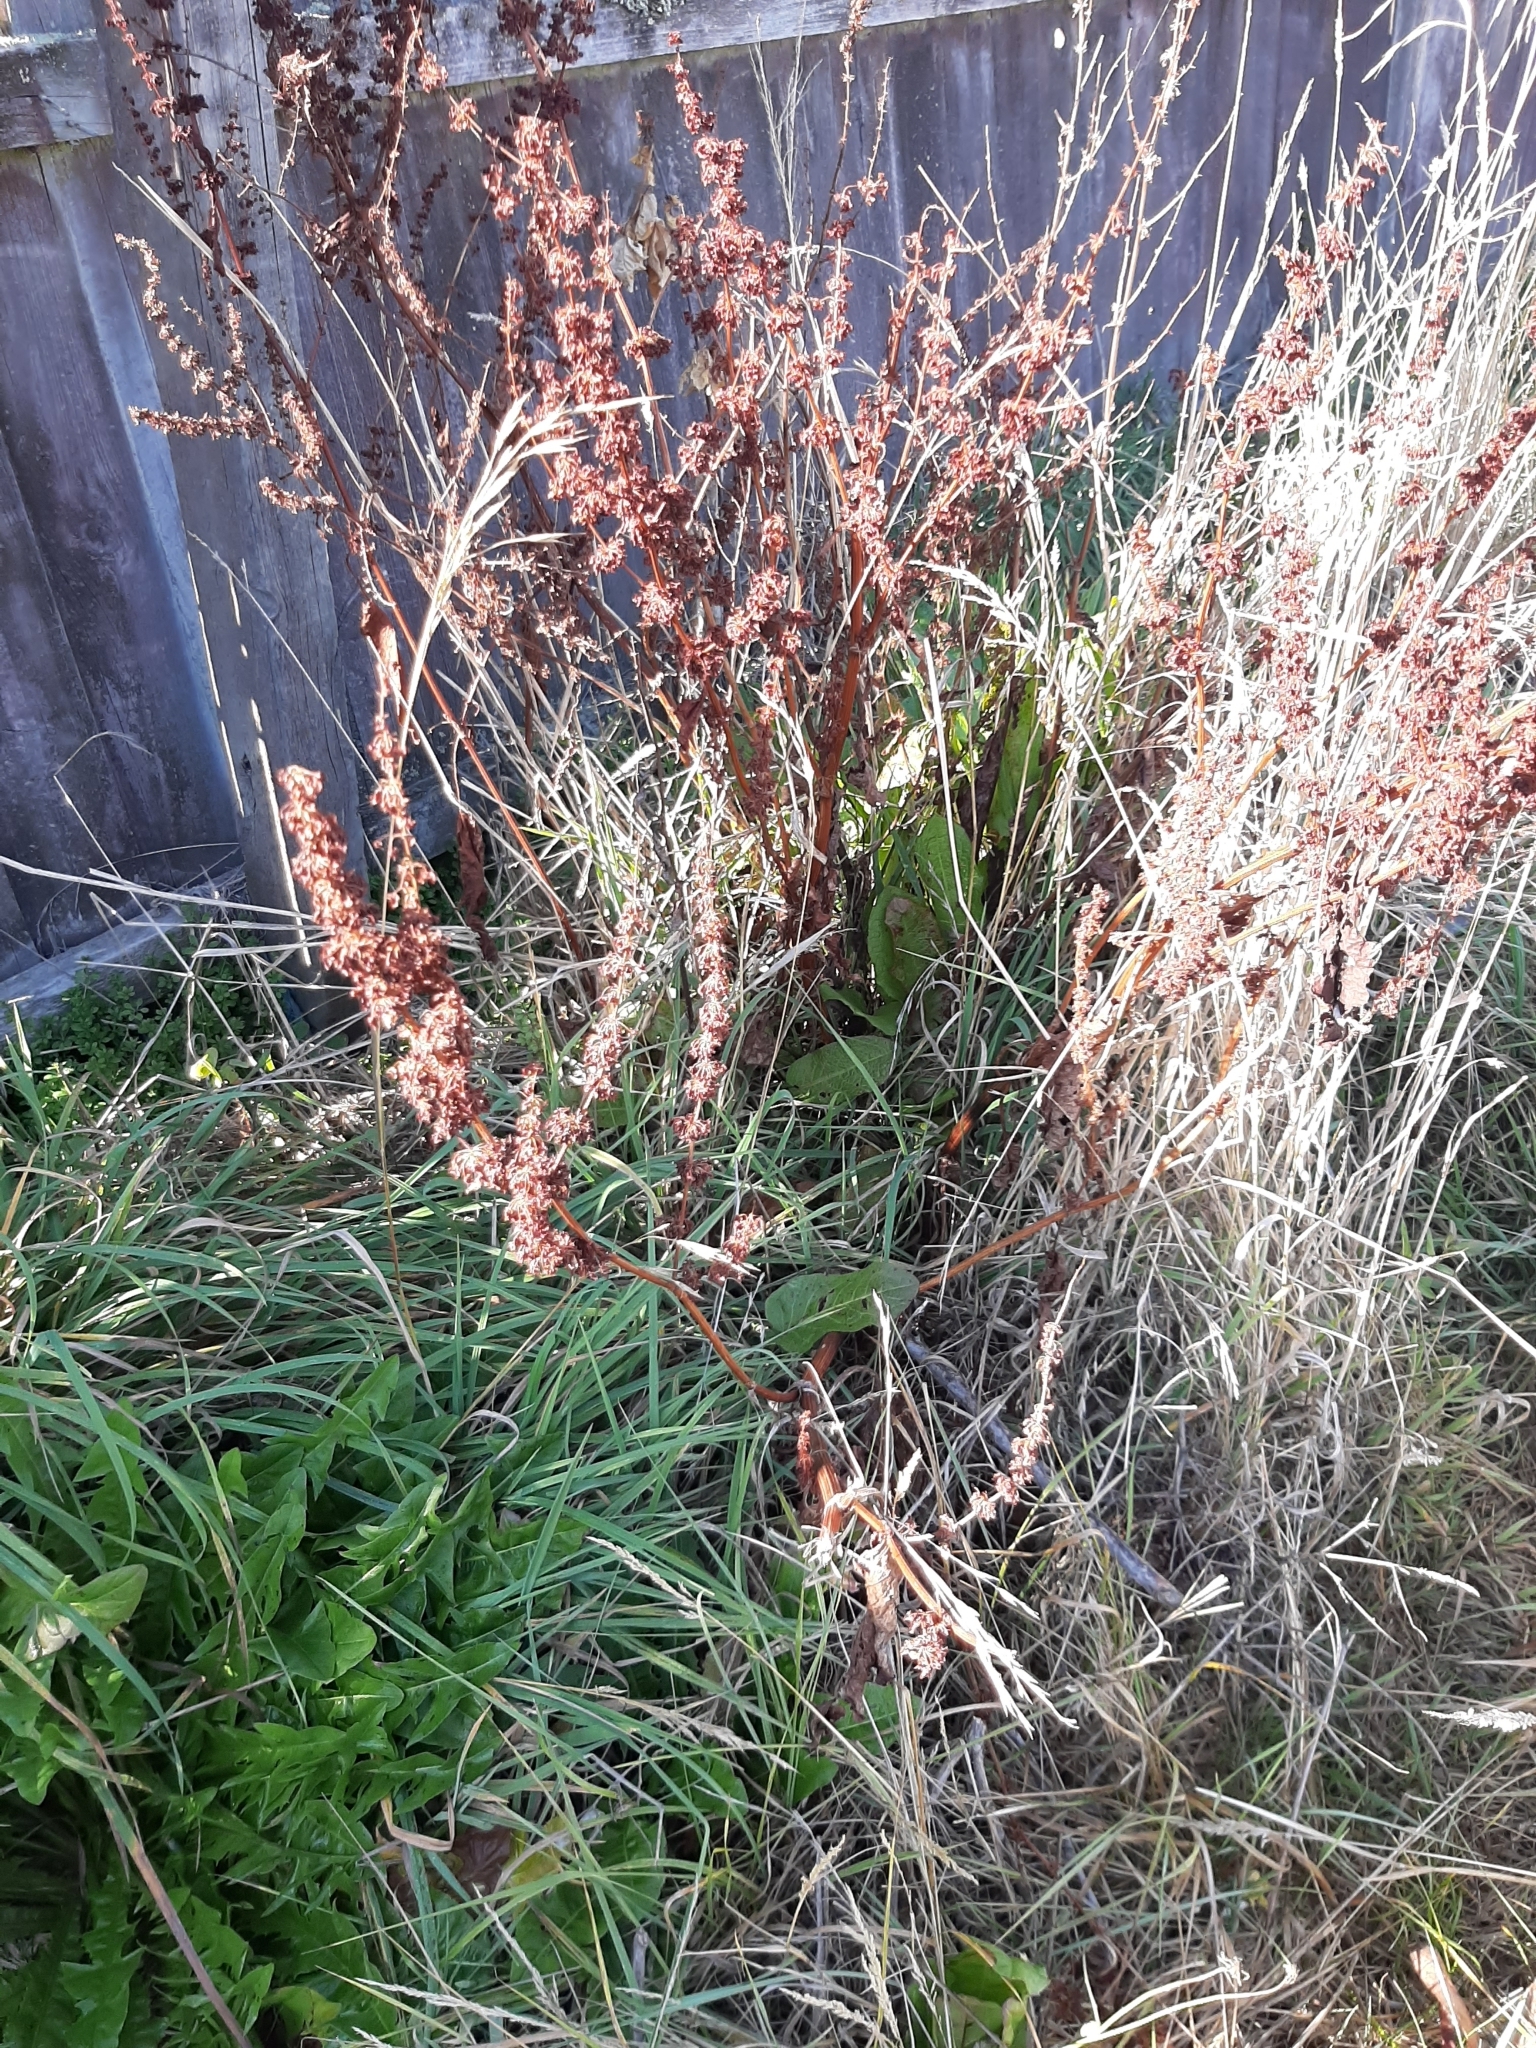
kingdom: Plantae
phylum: Tracheophyta
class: Magnoliopsida
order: Caryophyllales
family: Polygonaceae
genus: Rumex
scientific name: Rumex obtusifolius
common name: Bitter dock
